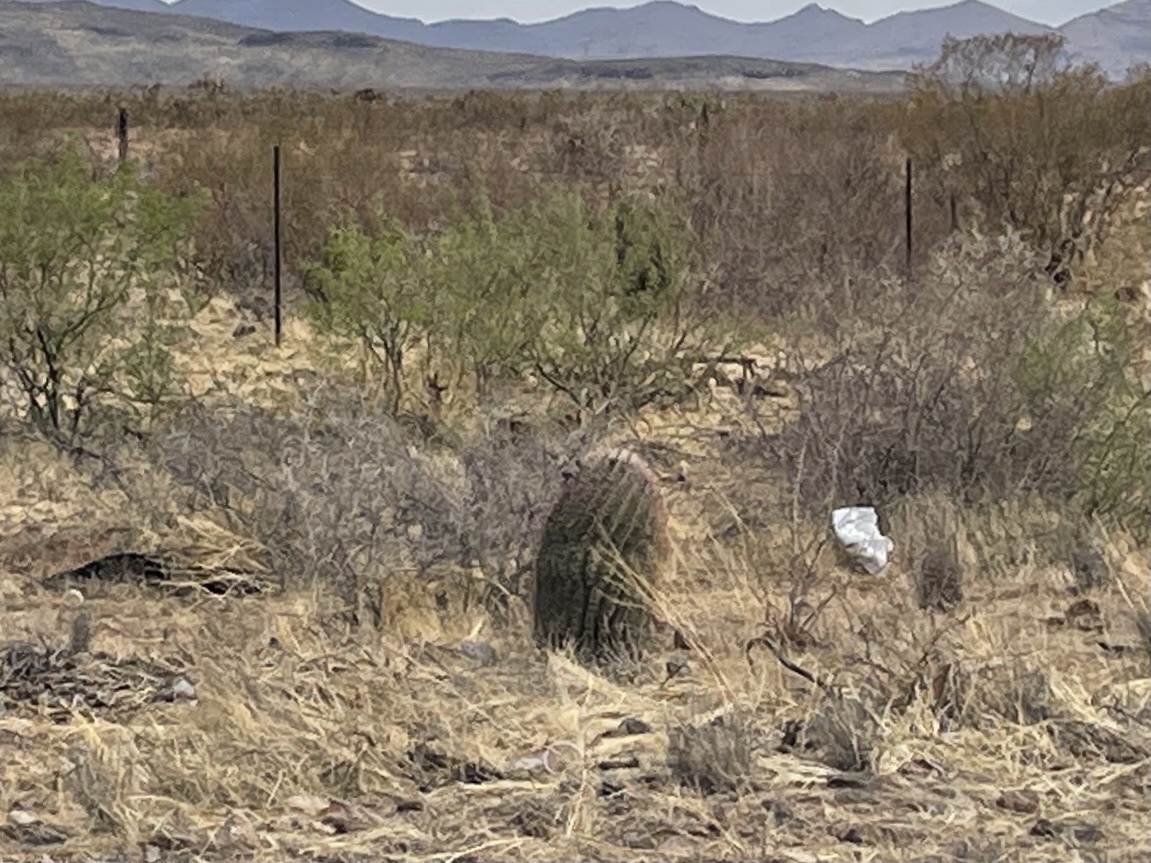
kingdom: Plantae
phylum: Tracheophyta
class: Magnoliopsida
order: Caryophyllales
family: Cactaceae
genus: Ferocactus
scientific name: Ferocactus wislizeni
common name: Candy barrel cactus
